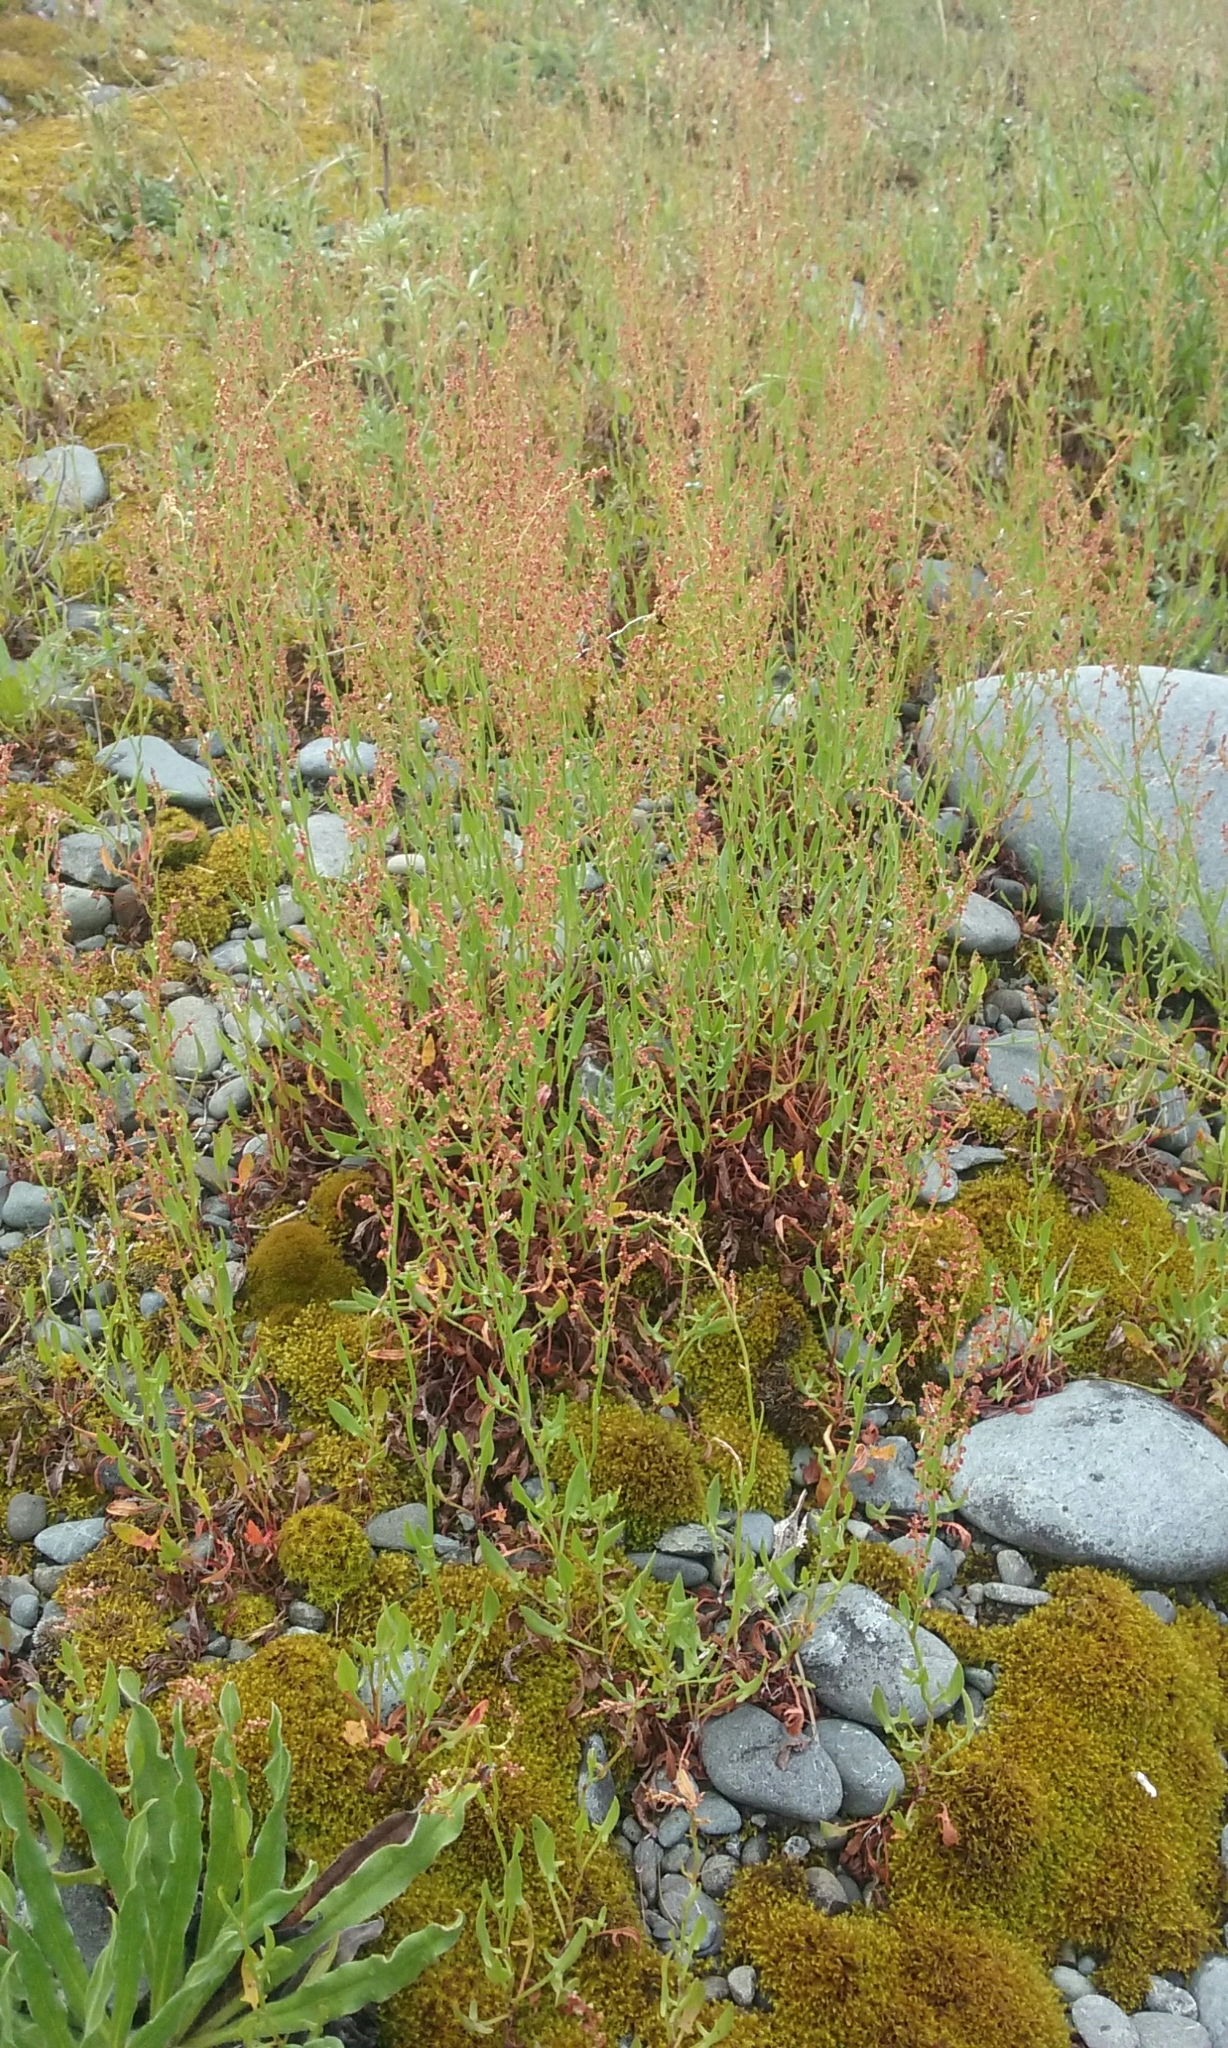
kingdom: Plantae
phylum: Tracheophyta
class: Magnoliopsida
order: Caryophyllales
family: Polygonaceae
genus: Rumex
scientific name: Rumex acetosella
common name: Common sheep sorrel
